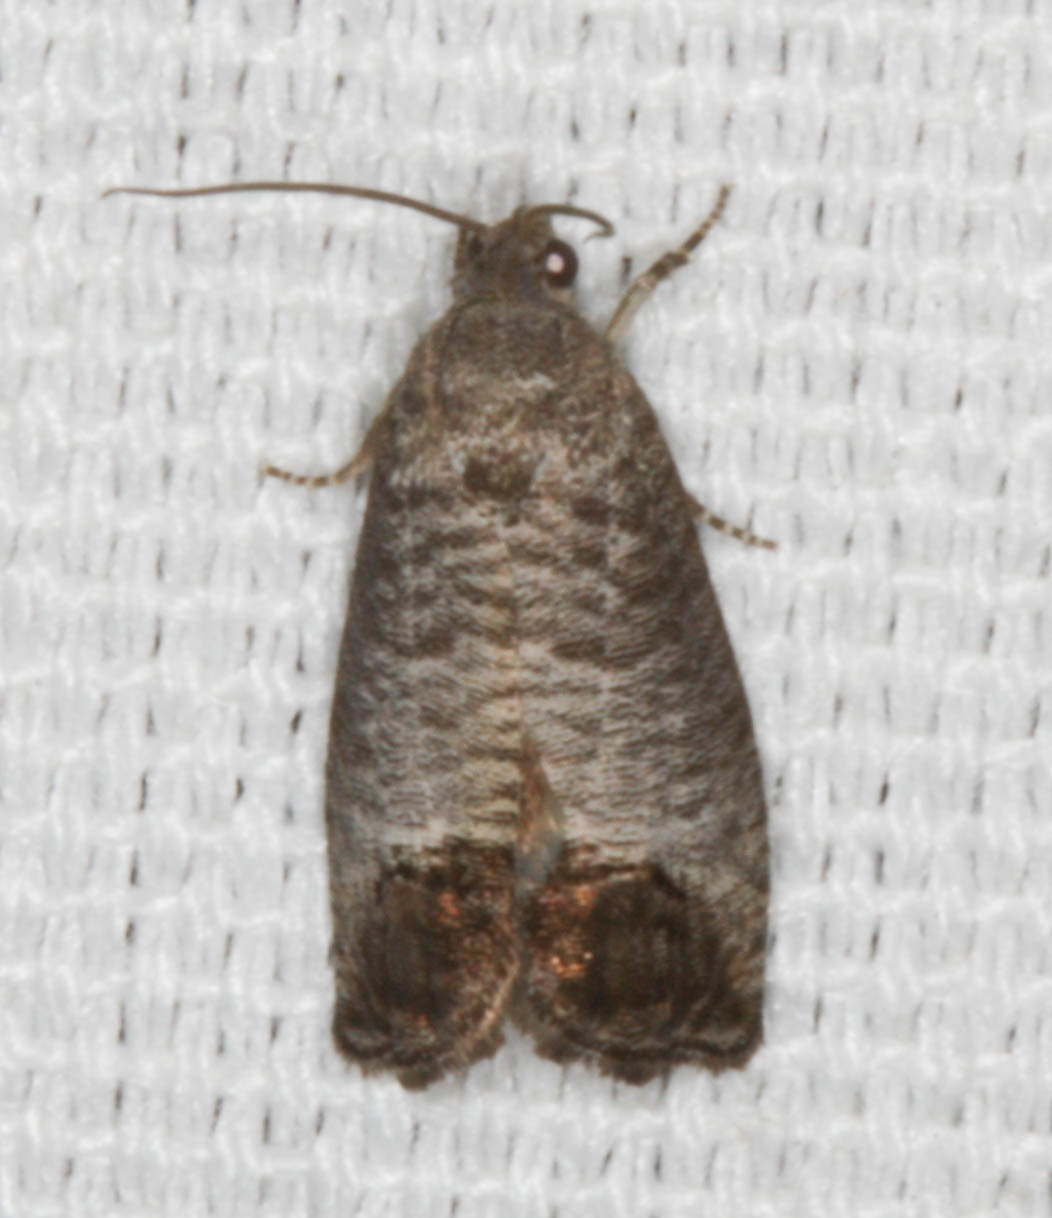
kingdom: Animalia
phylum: Arthropoda
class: Insecta
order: Lepidoptera
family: Tortricidae
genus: Cydia
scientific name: Cydia pomonella
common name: Codling moth
